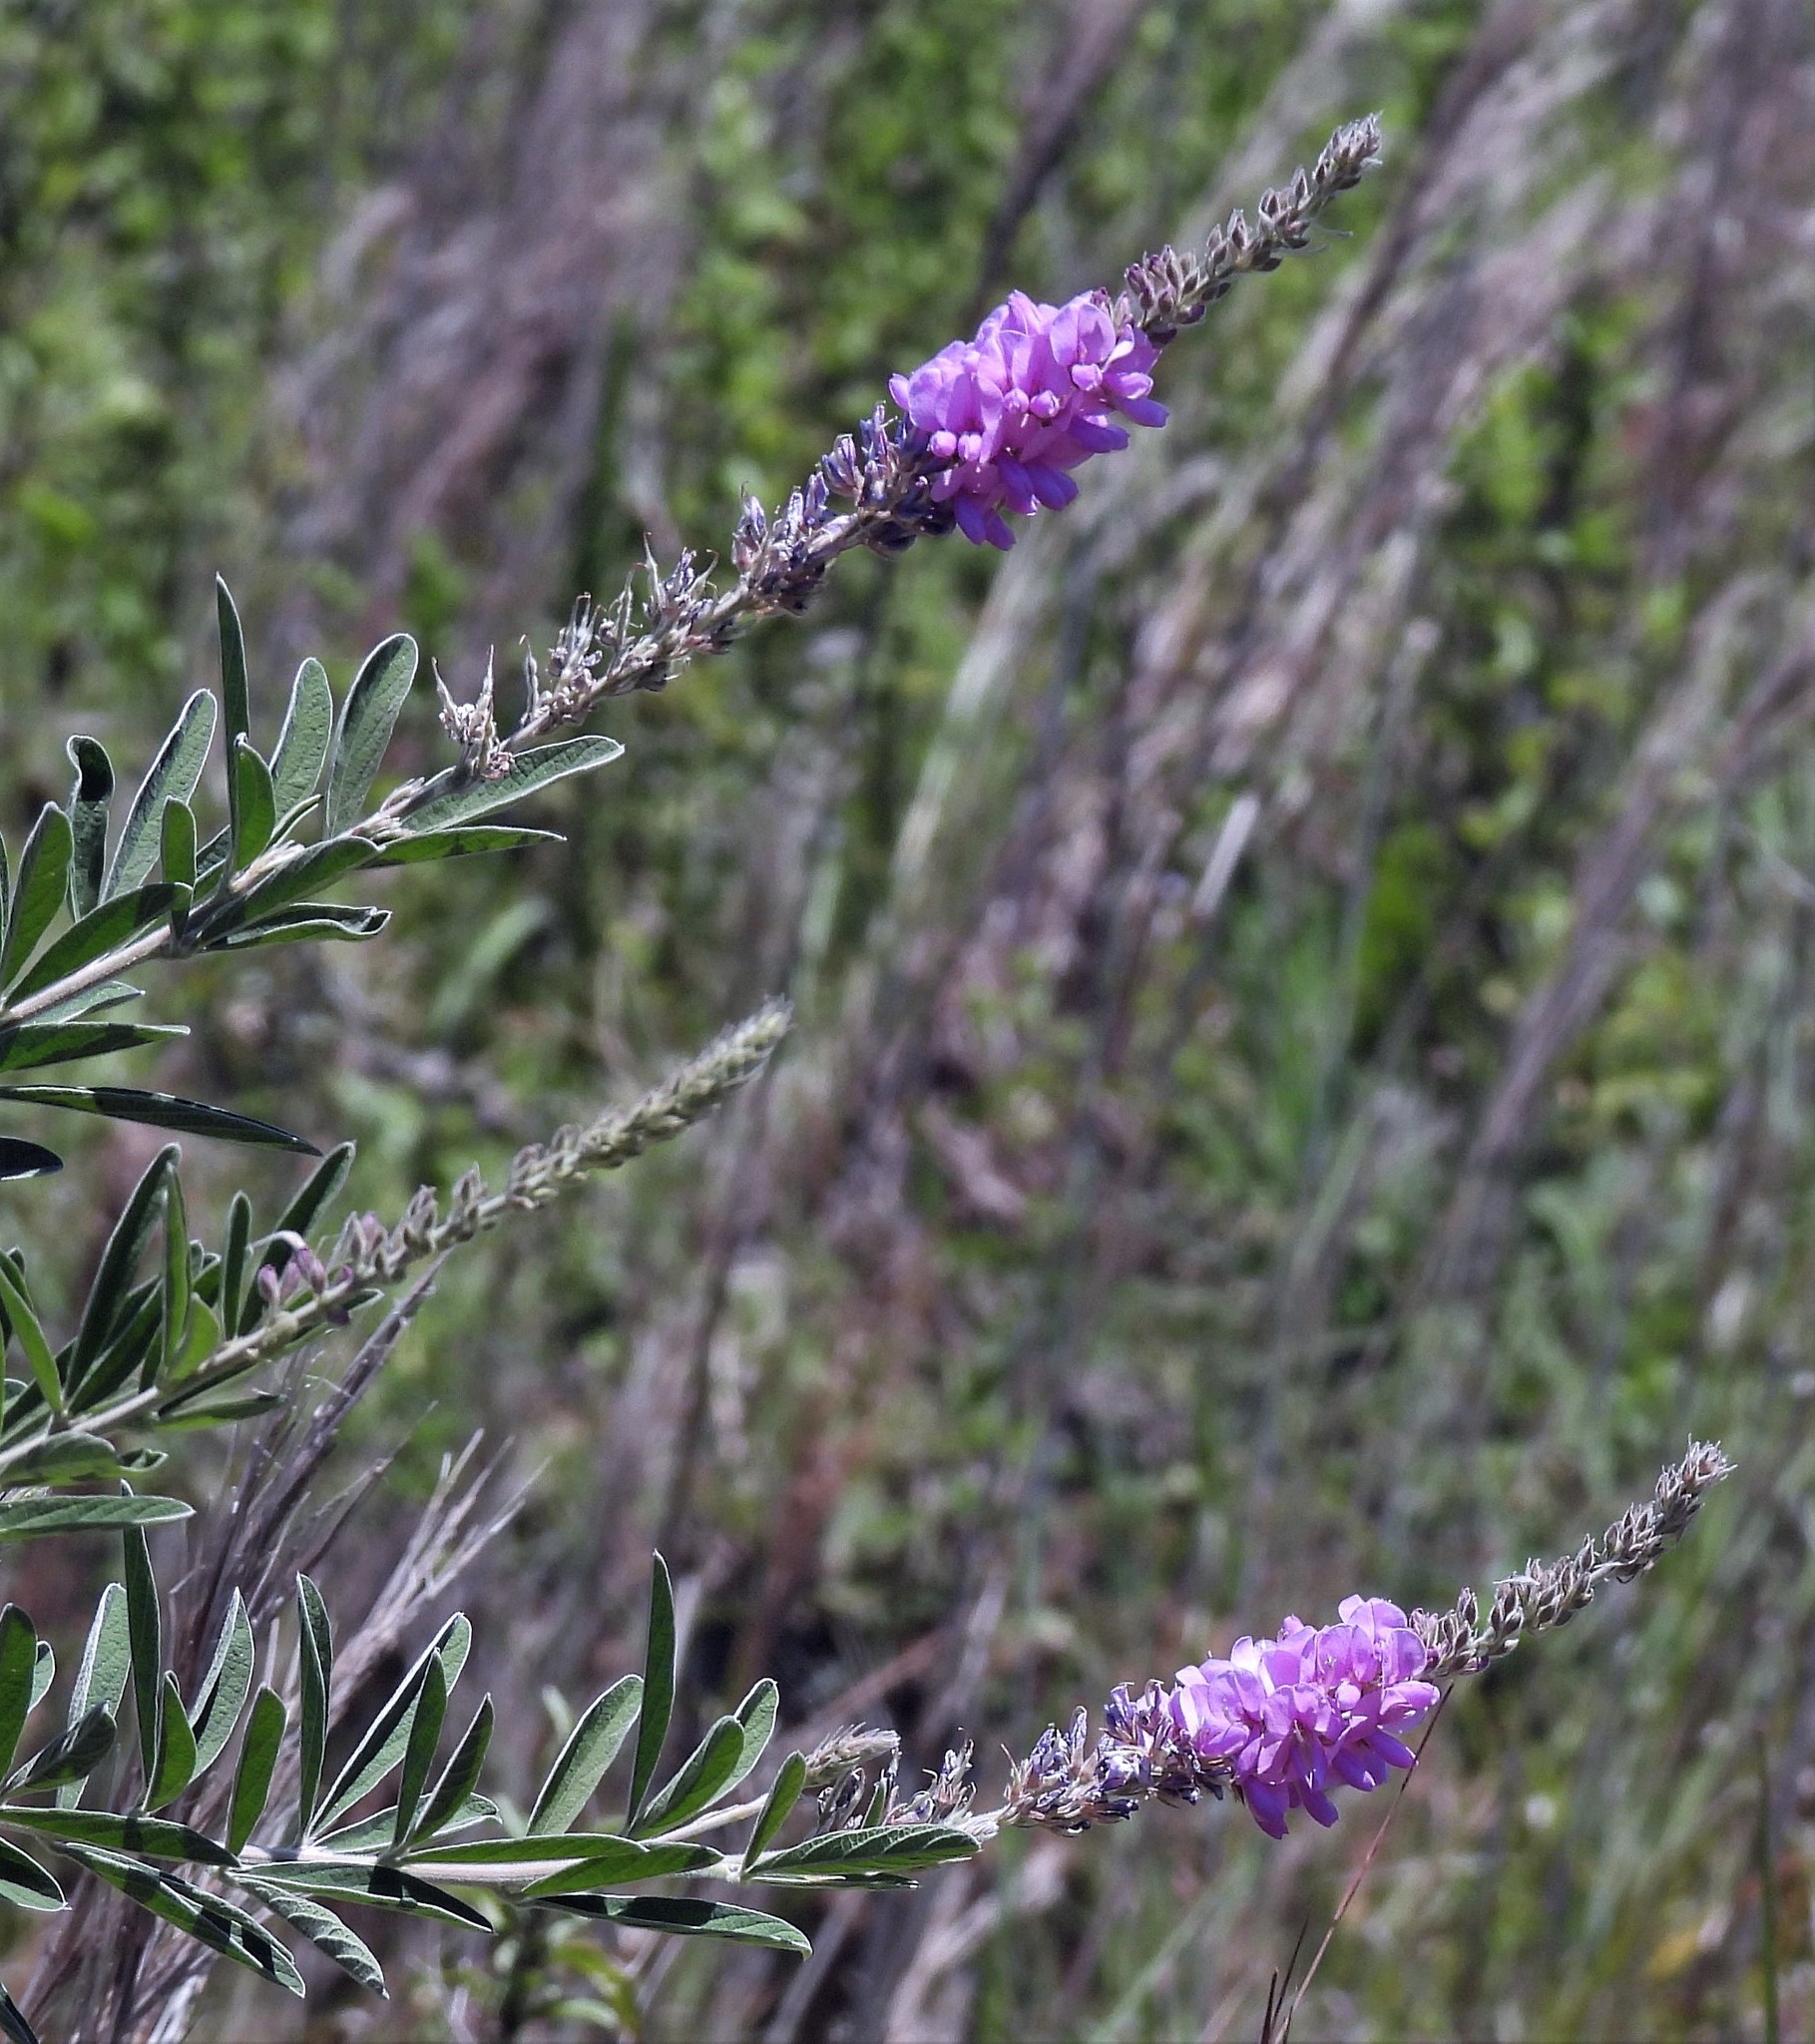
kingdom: Plantae
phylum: Tracheophyta
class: Magnoliopsida
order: Fabales
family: Fabaceae
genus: Desmodium
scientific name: Desmodium cuneatum
